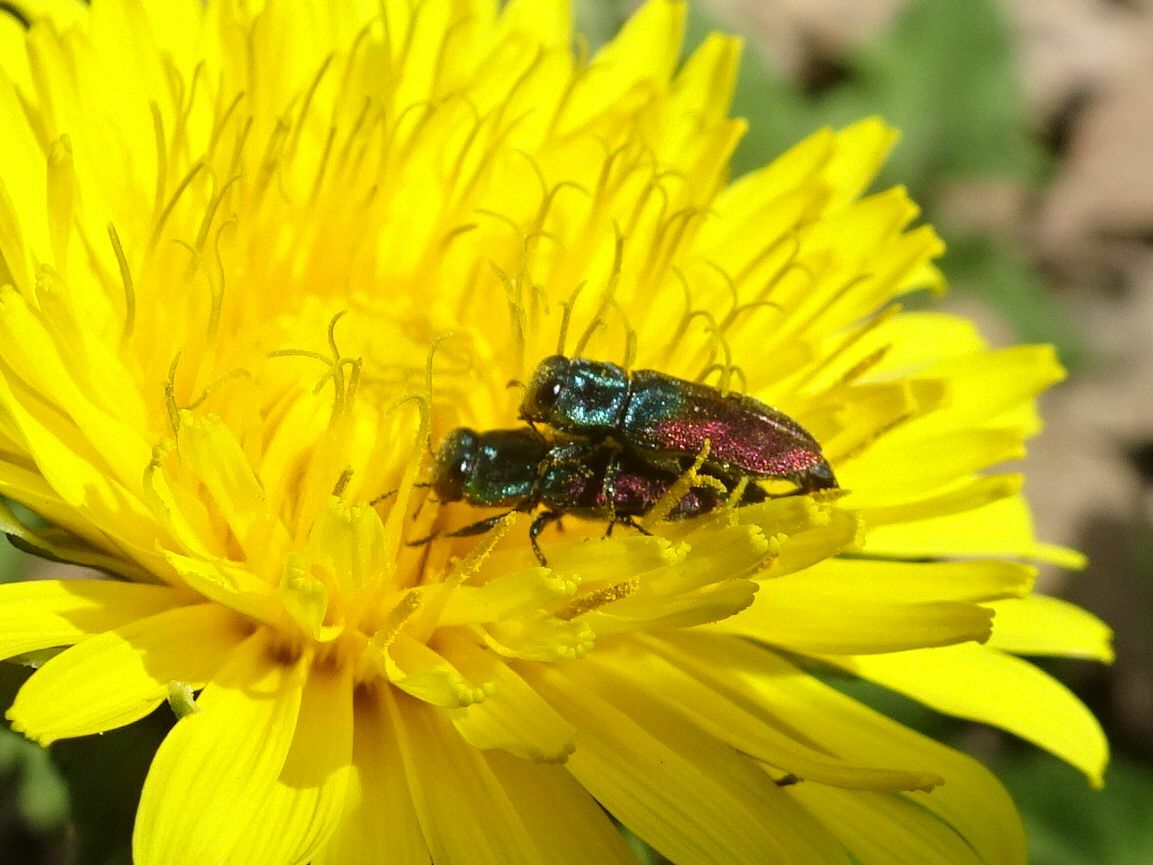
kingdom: Animalia
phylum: Arthropoda
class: Insecta
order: Coleoptera
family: Buprestidae
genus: Anthaxia
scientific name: Anthaxia salicis
